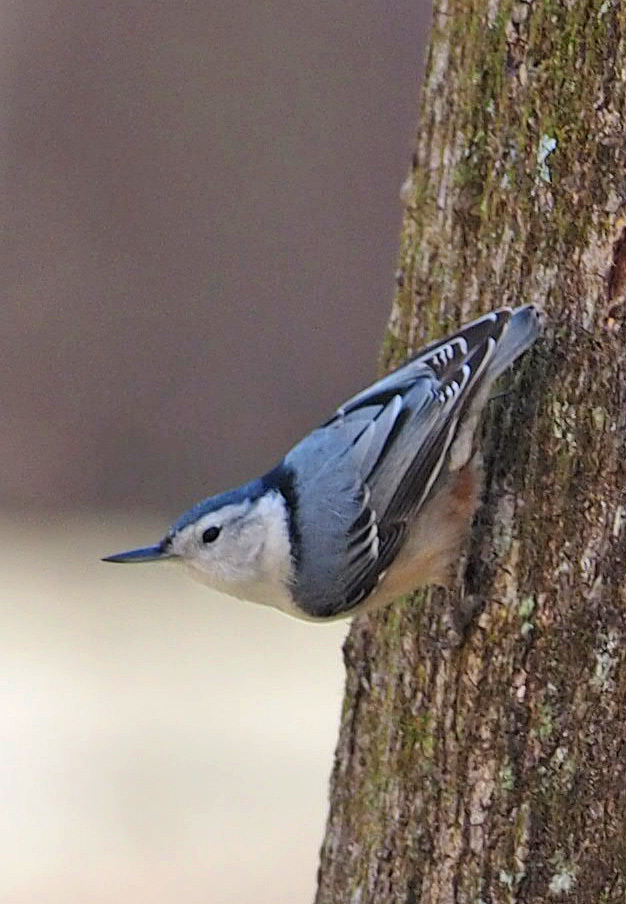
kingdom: Animalia
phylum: Chordata
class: Aves
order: Passeriformes
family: Sittidae
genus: Sitta
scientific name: Sitta carolinensis
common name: White-breasted nuthatch
